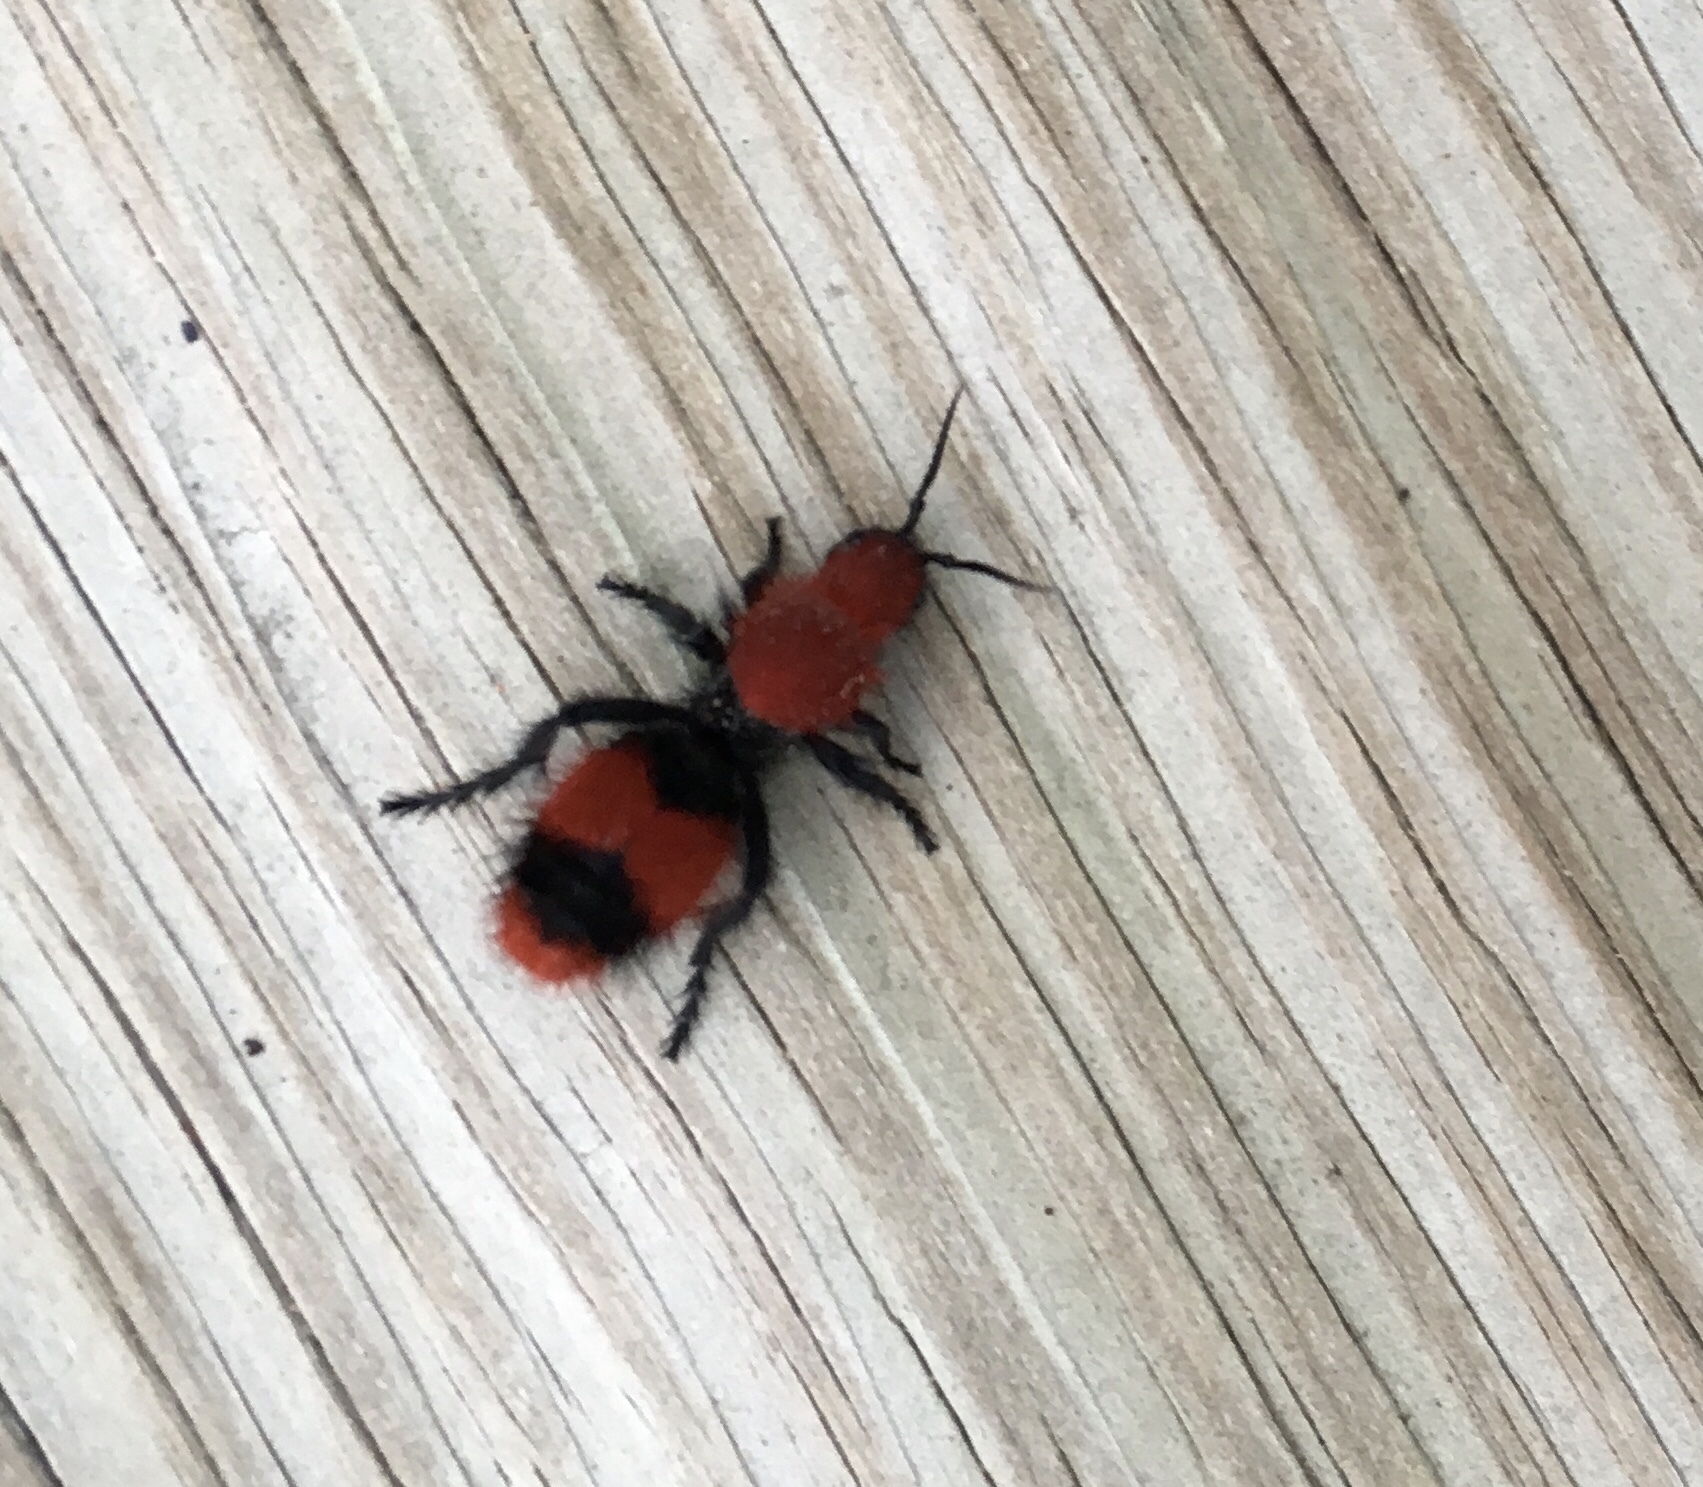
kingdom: Animalia
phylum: Arthropoda
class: Insecta
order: Hymenoptera
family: Mutillidae
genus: Dasymutilla
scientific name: Dasymutilla occidentalis
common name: Common eastern velvet ant
